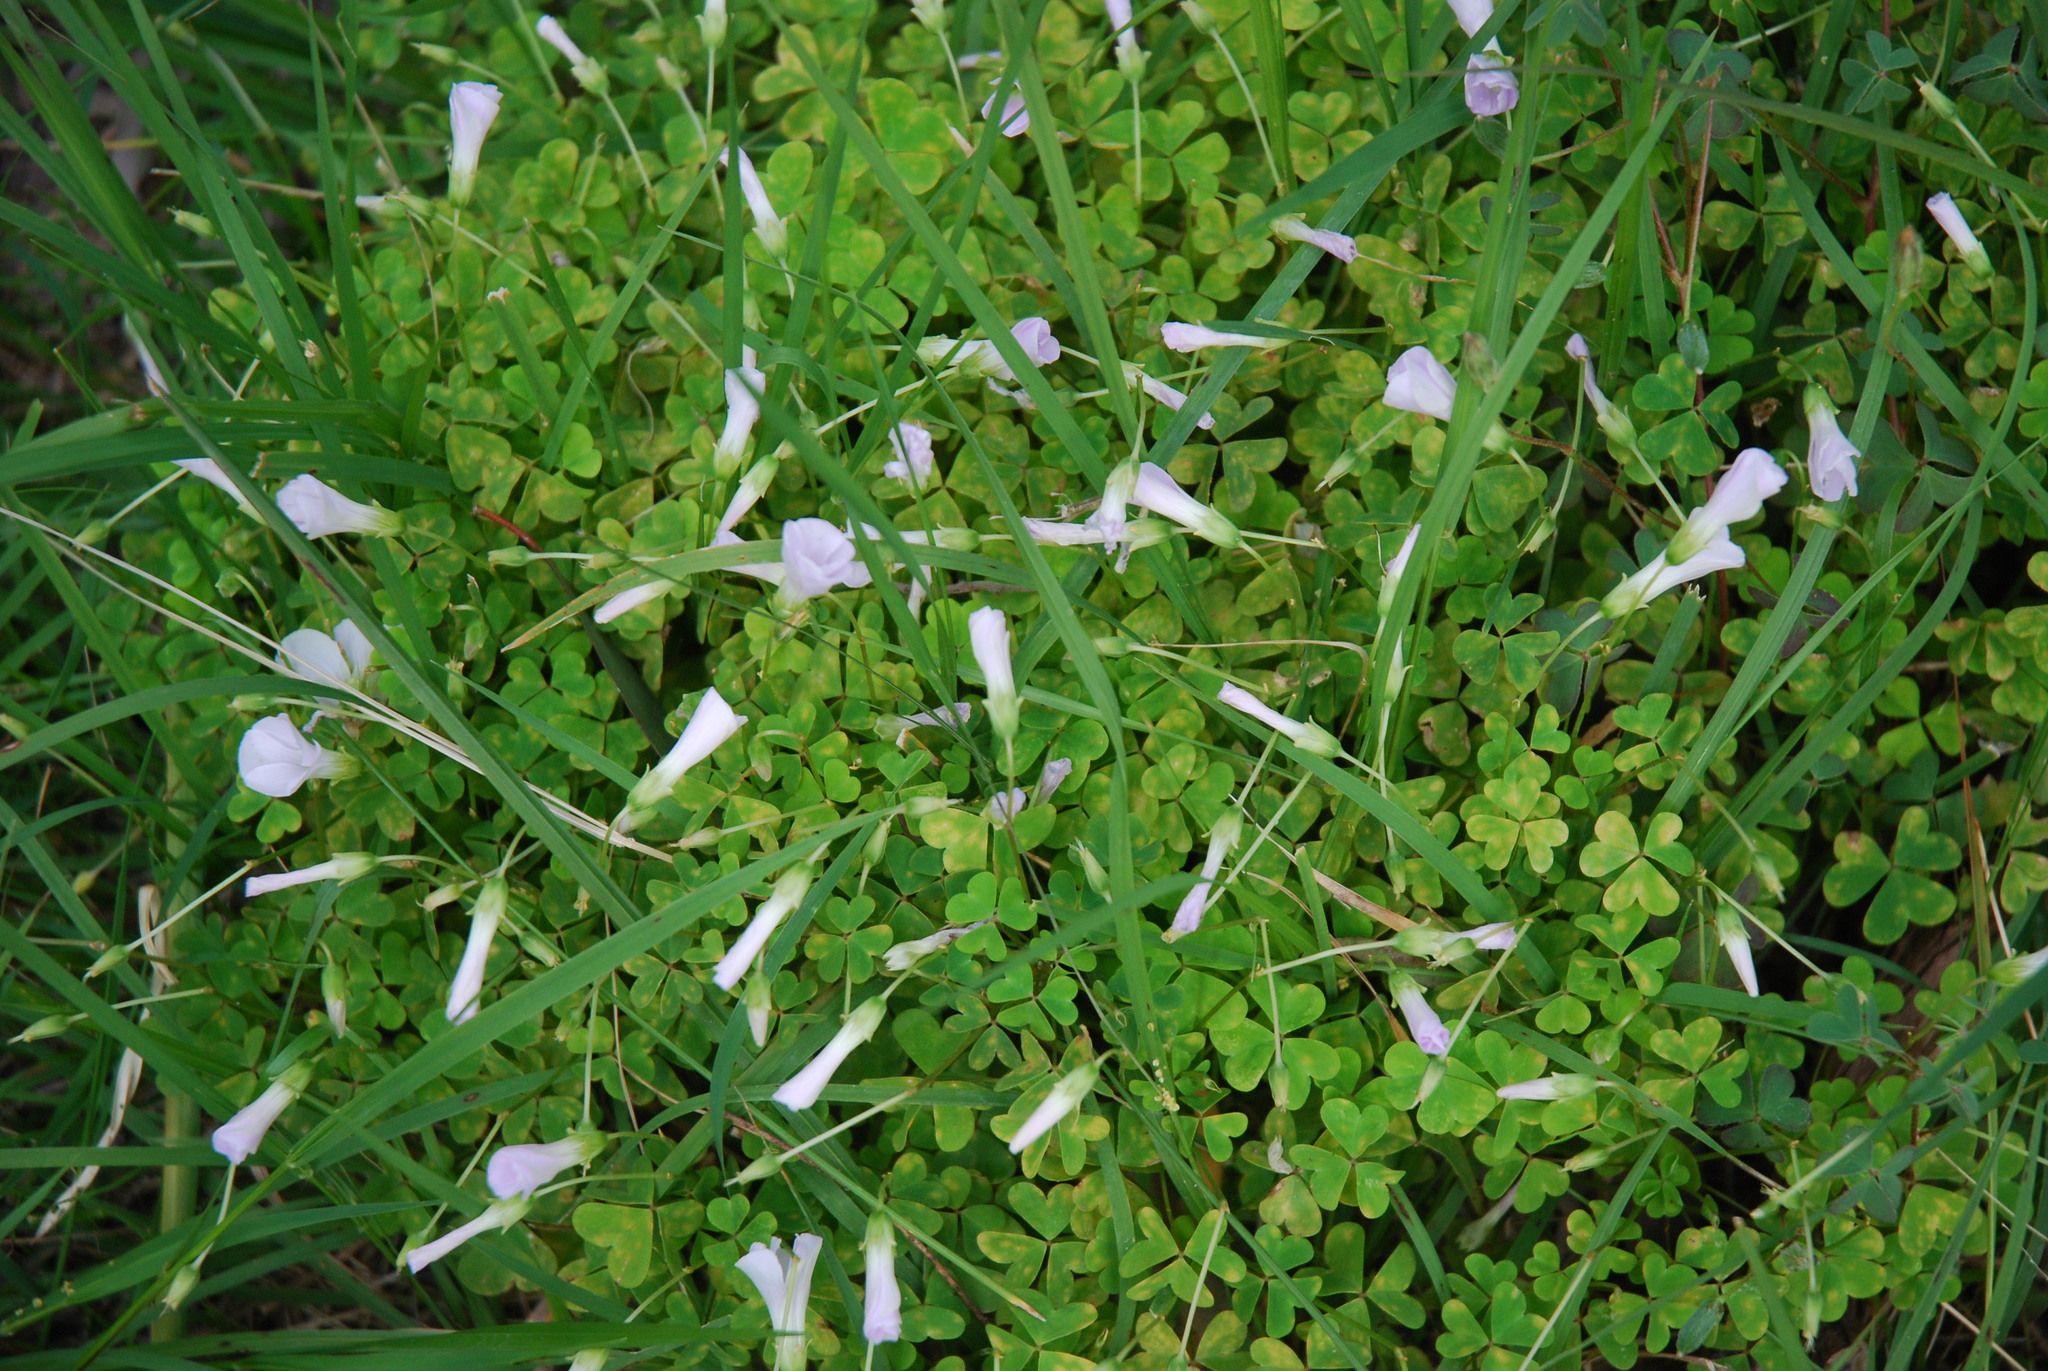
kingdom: Plantae
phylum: Tracheophyta
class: Magnoliopsida
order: Oxalidales
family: Oxalidaceae
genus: Oxalis
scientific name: Oxalis incarnata
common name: Pale pink-sorrel
